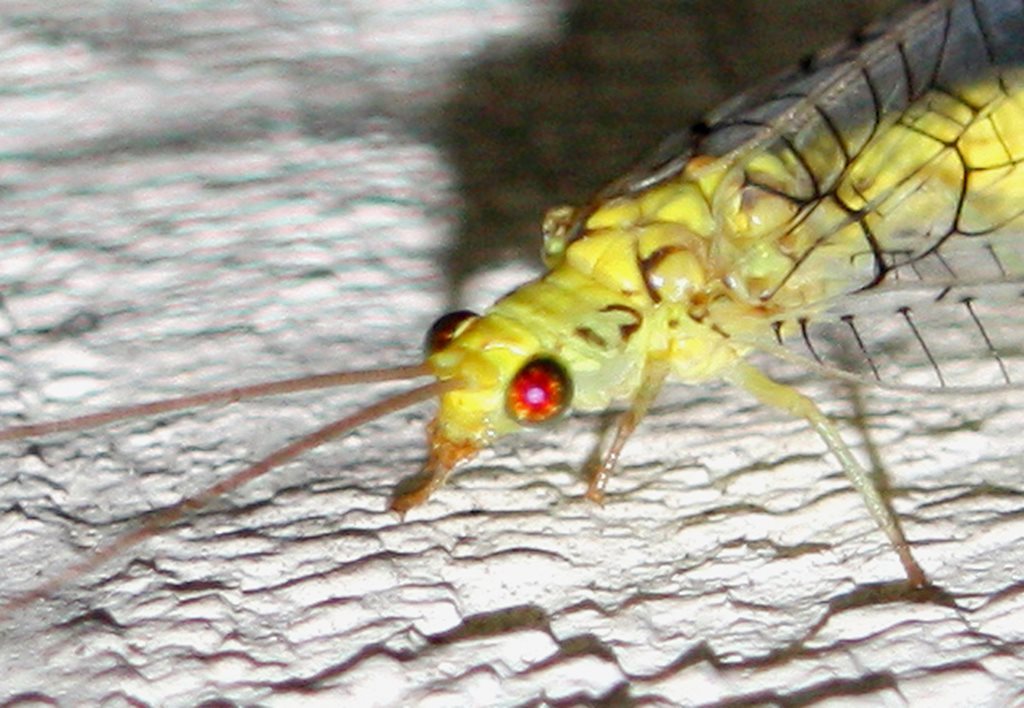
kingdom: Animalia
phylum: Arthropoda
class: Insecta
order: Neuroptera
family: Chrysopidae
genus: Italochrysa
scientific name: Italochrysa insignis
